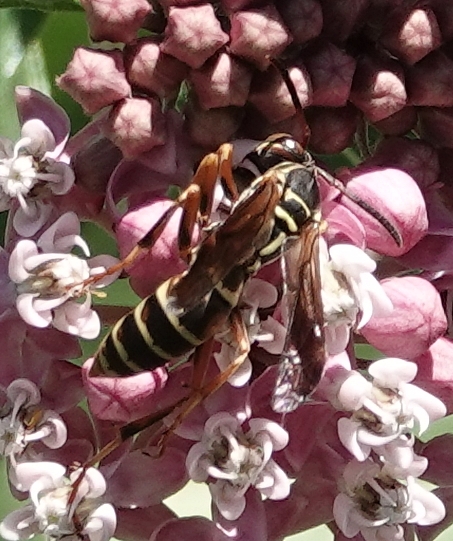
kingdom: Animalia
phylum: Arthropoda
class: Insecta
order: Hymenoptera
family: Eumenidae
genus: Polistes
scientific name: Polistes fuscatus
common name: Dark paper wasp
